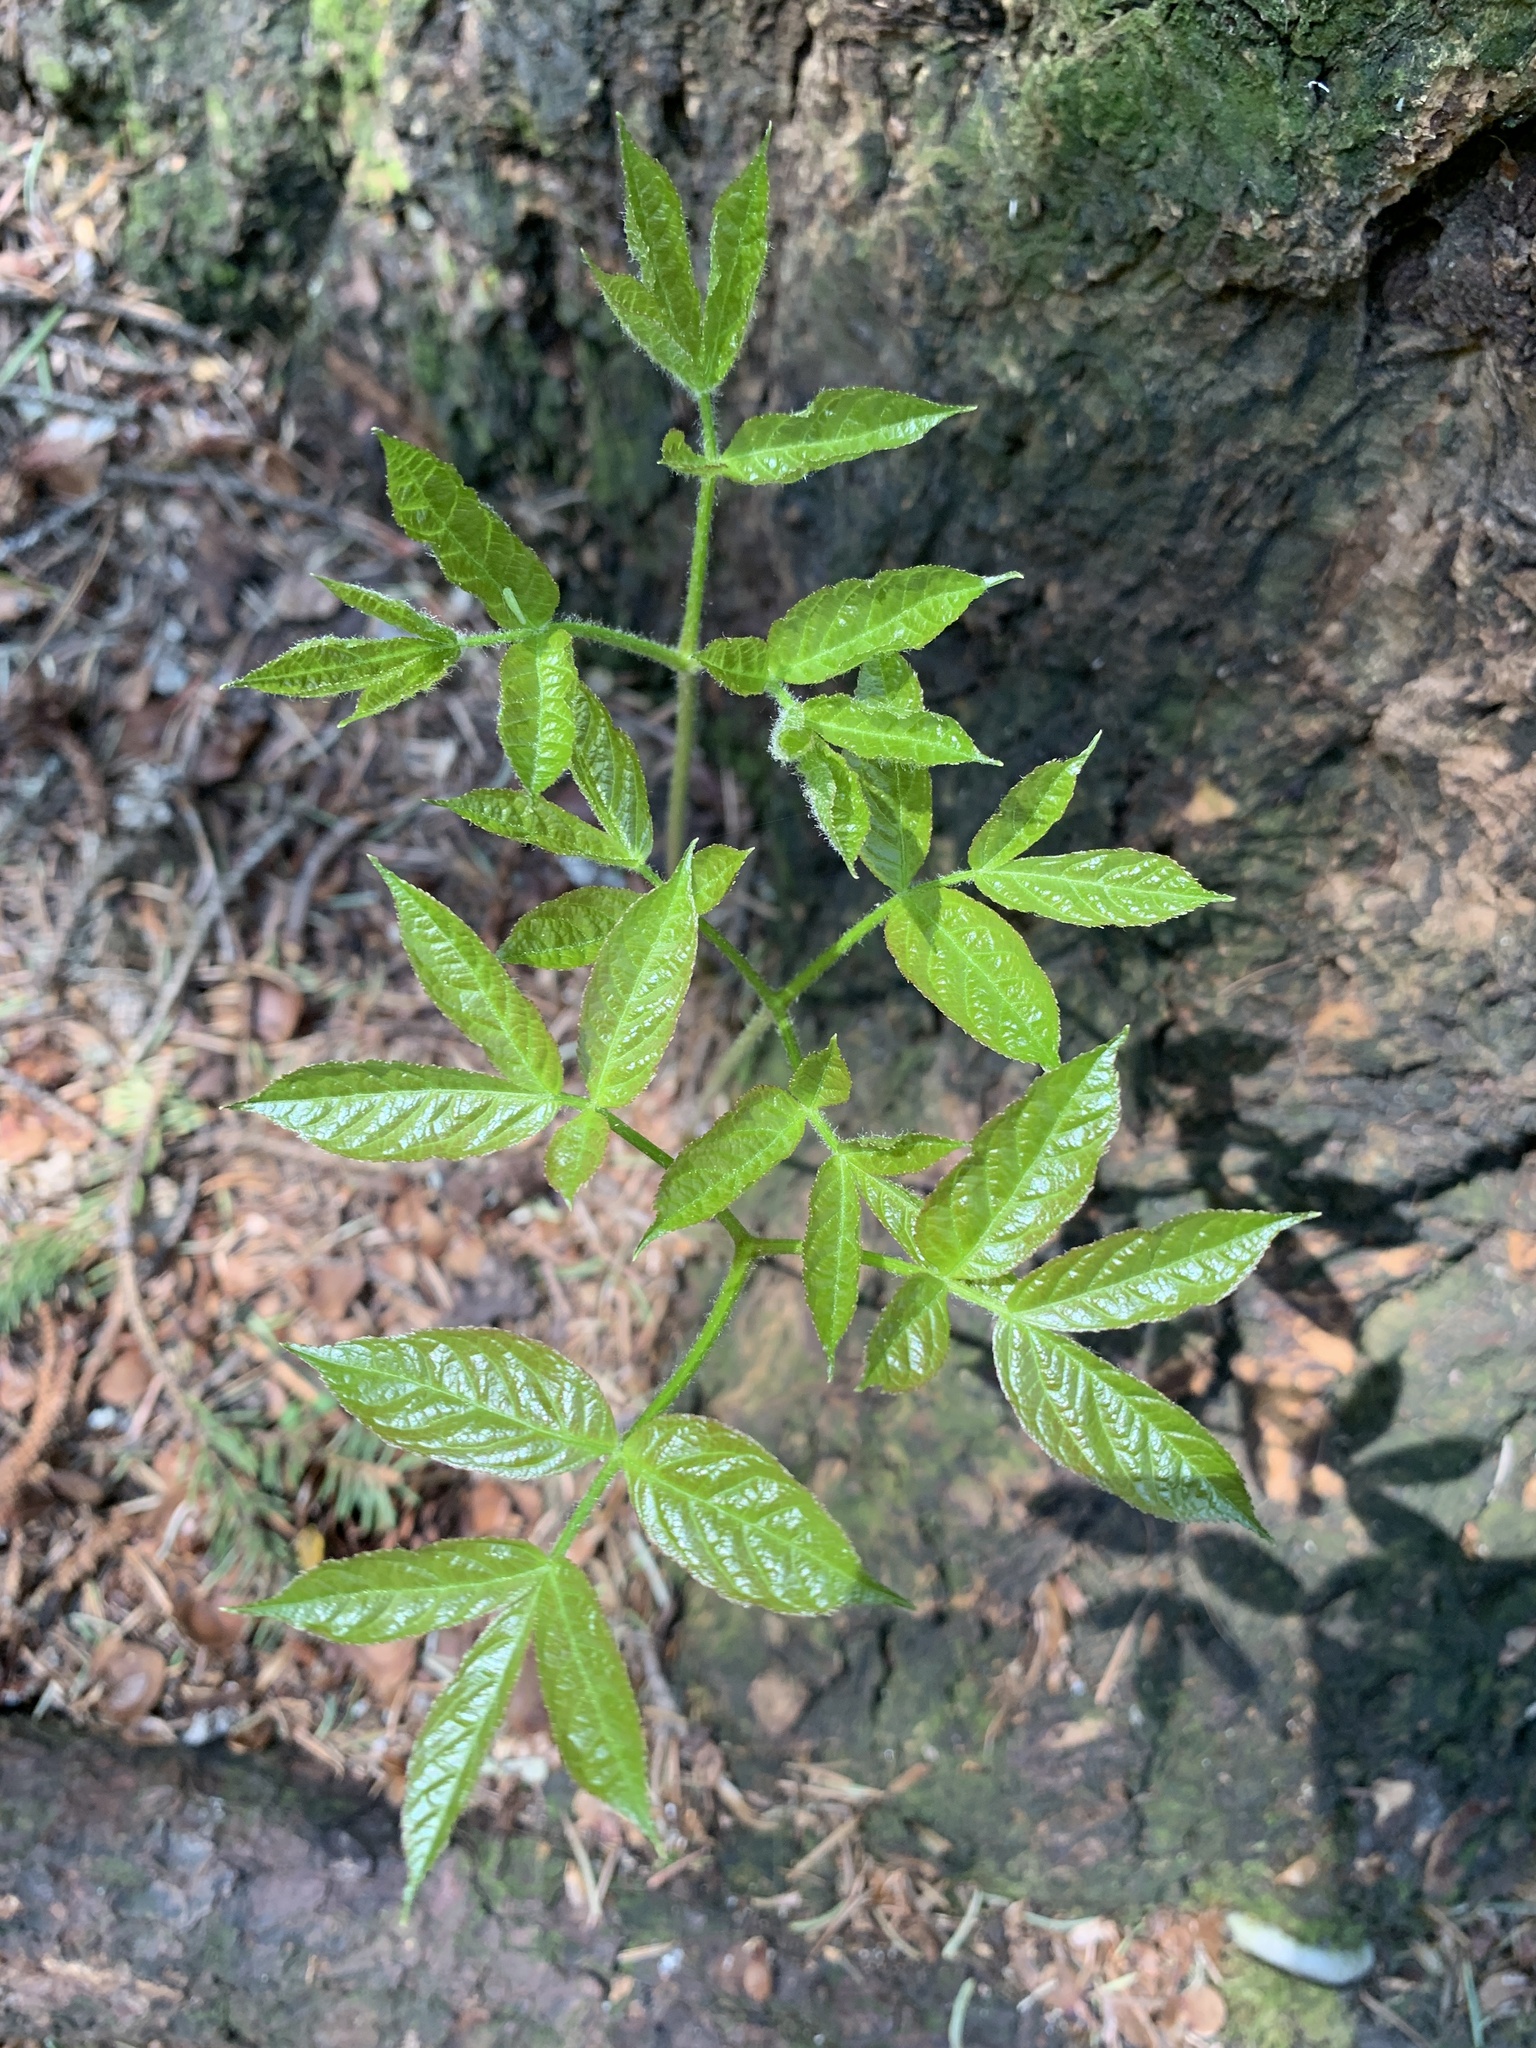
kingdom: Plantae
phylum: Tracheophyta
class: Magnoliopsida
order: Apiales
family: Araliaceae
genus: Aralia
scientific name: Aralia nudicaulis
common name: Wild sarsaparilla
